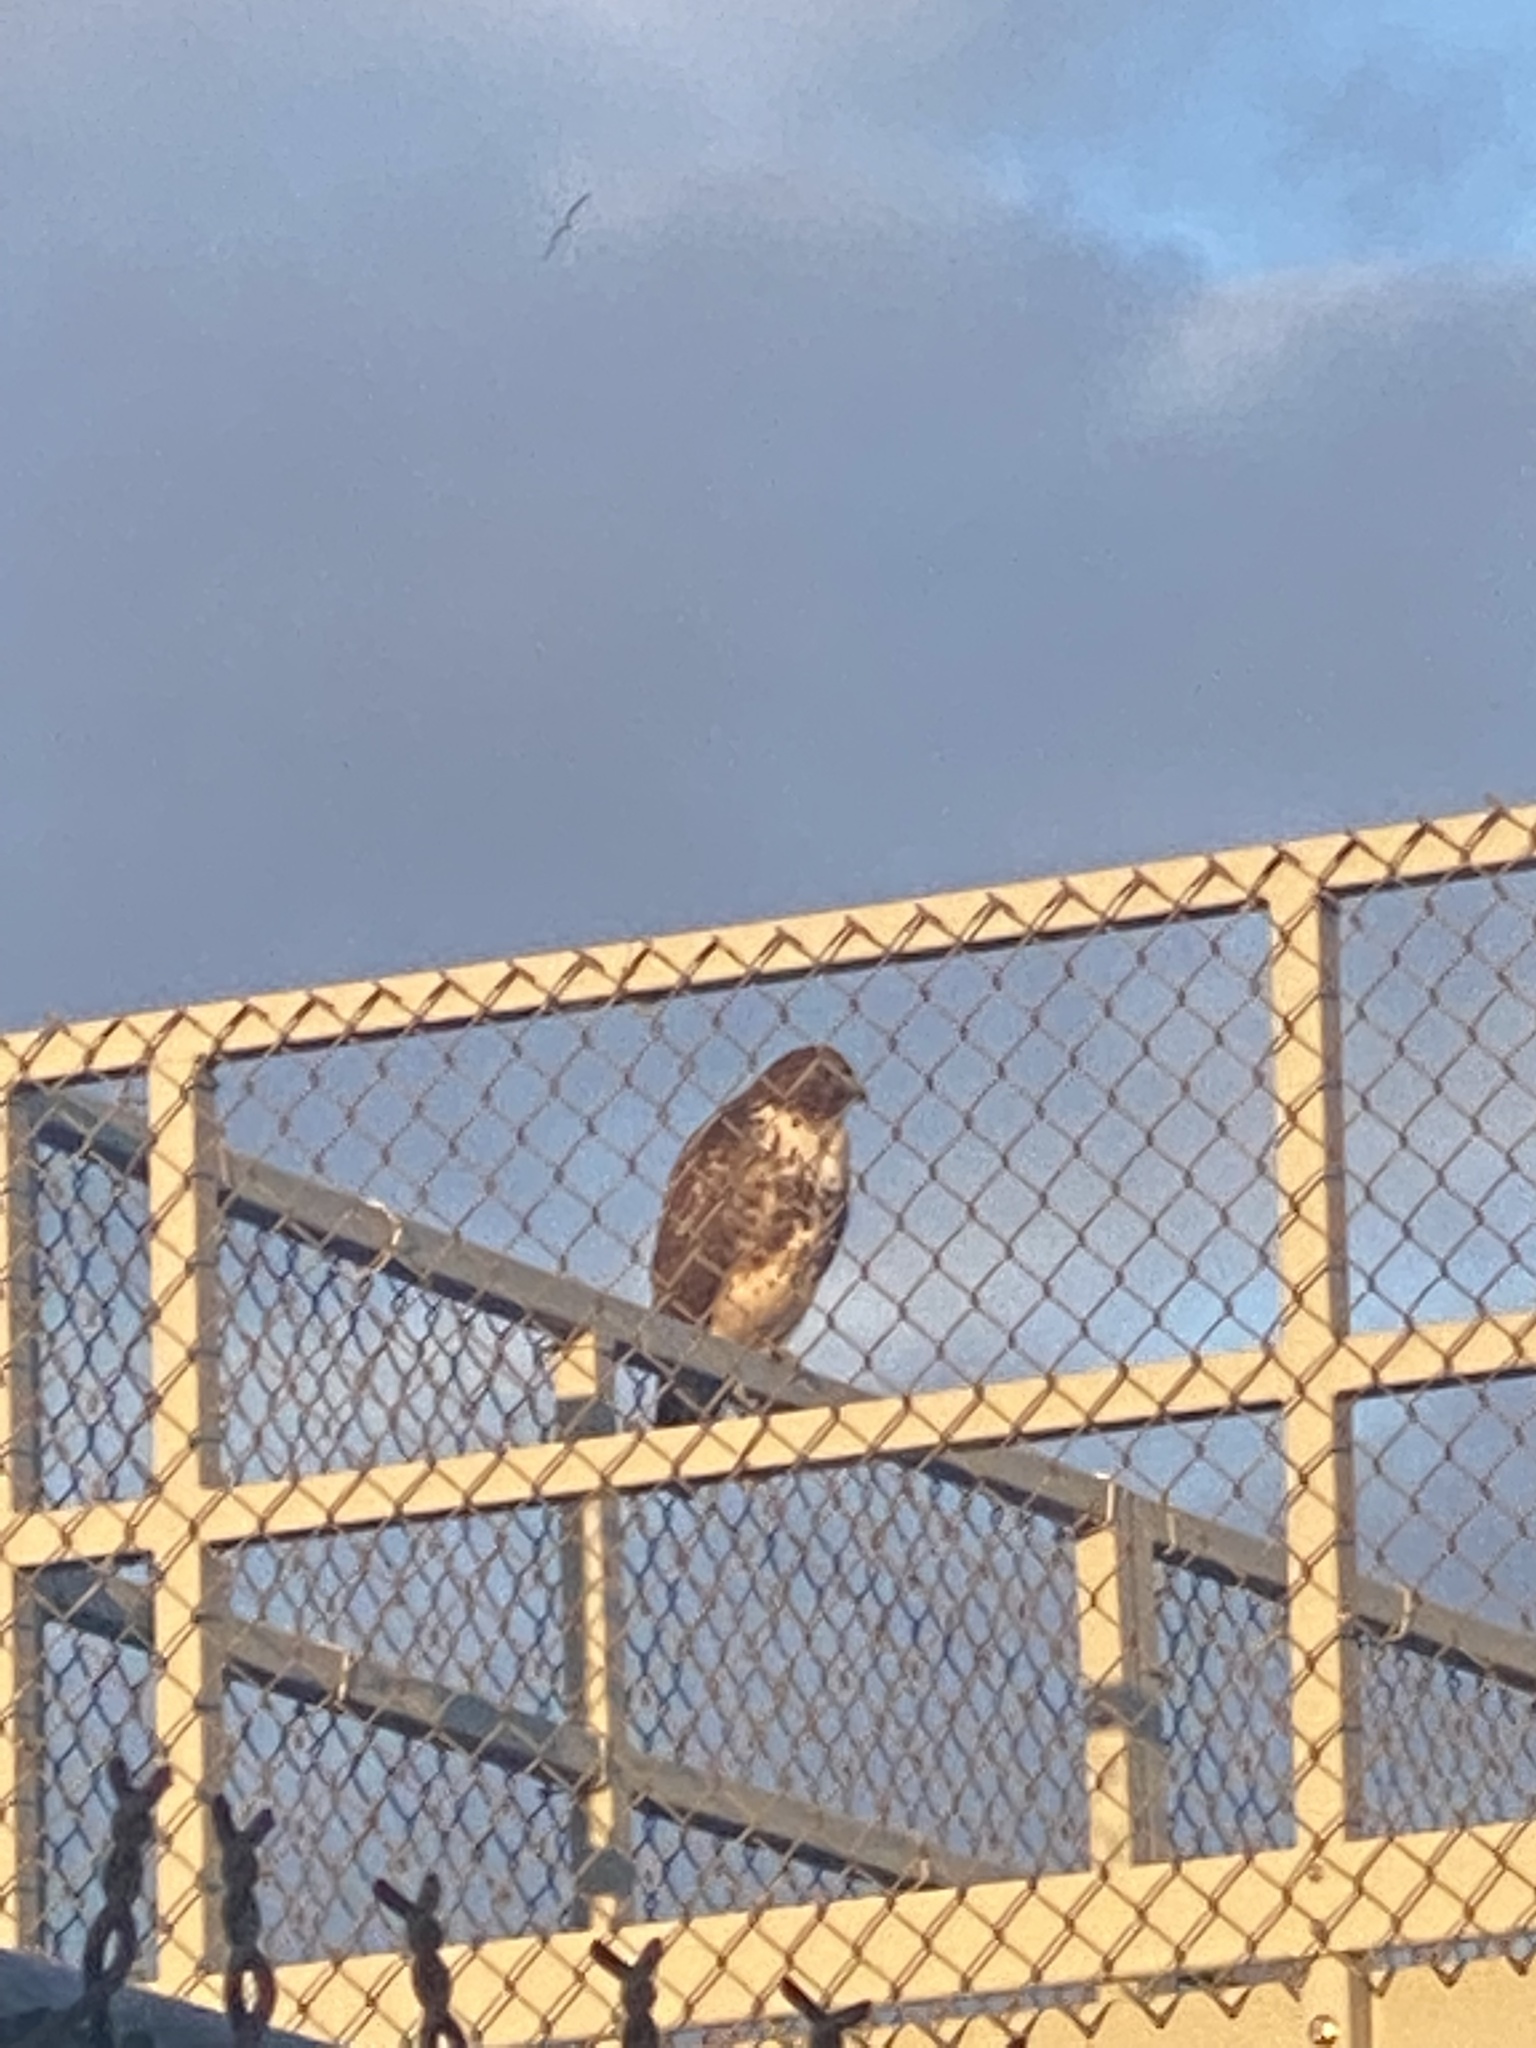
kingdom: Animalia
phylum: Chordata
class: Aves
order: Accipitriformes
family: Accipitridae
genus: Buteo
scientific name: Buteo jamaicensis
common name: Red-tailed hawk
